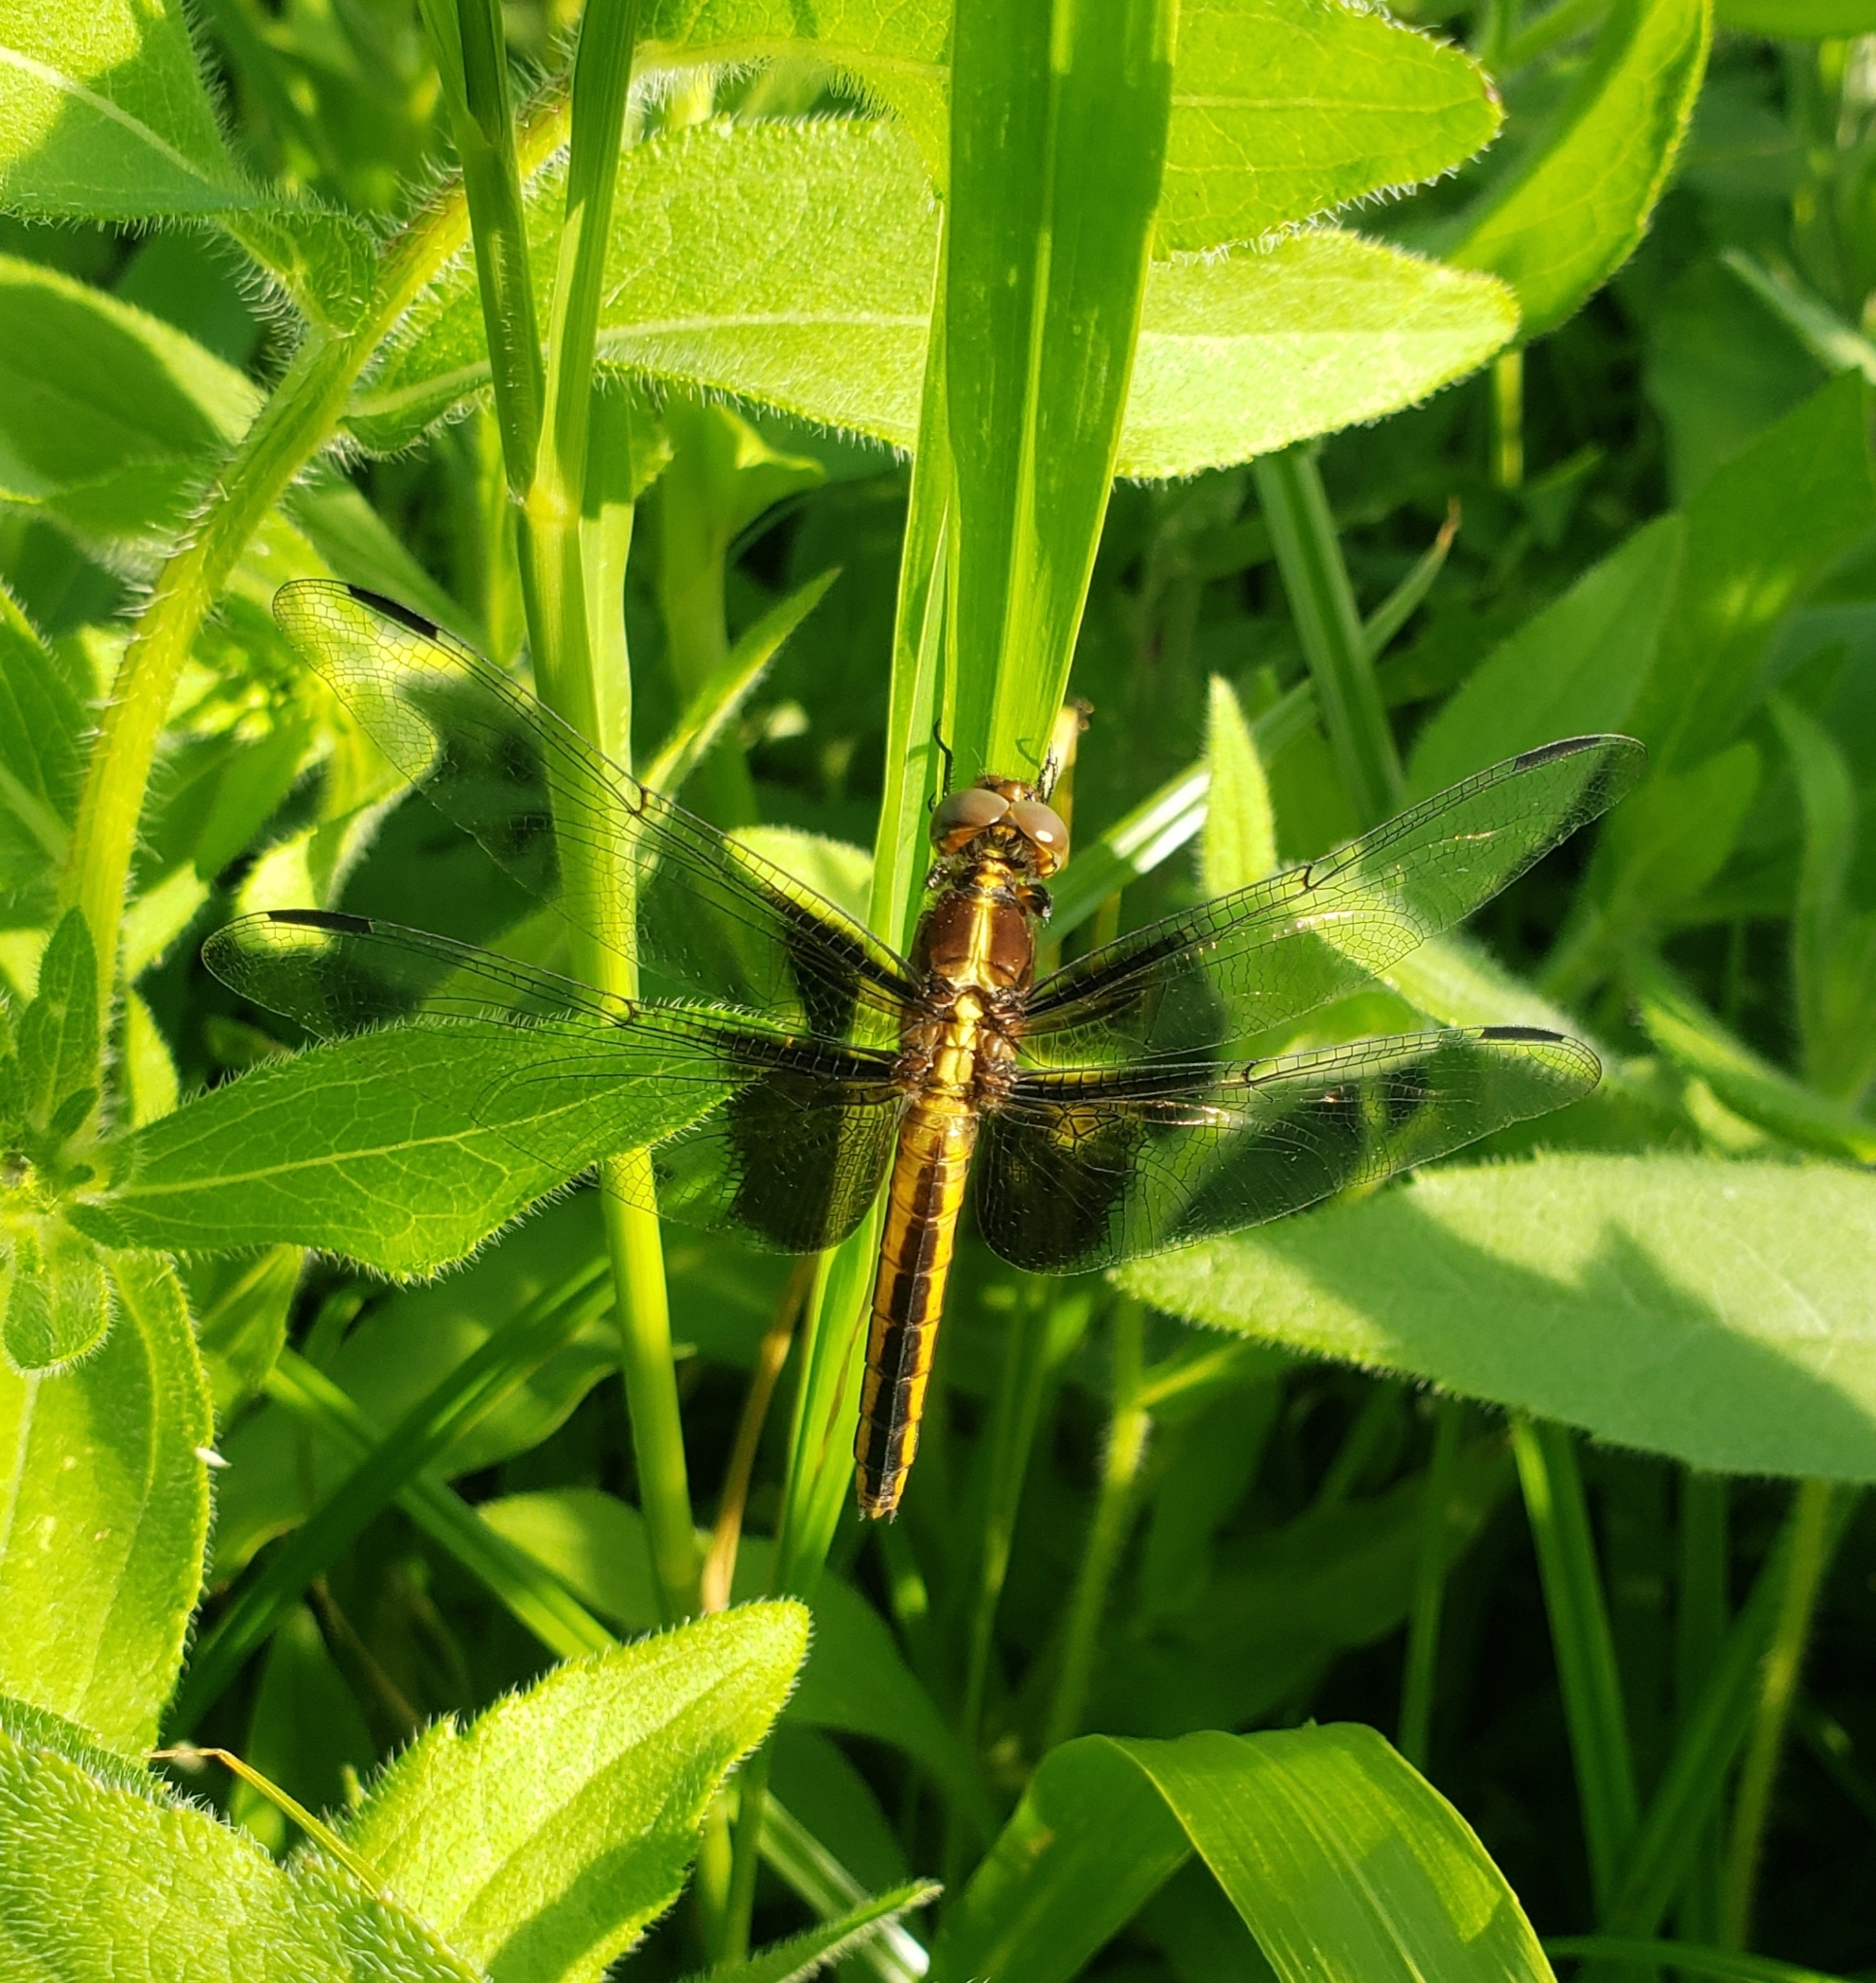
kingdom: Animalia
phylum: Arthropoda
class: Insecta
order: Odonata
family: Libellulidae
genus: Libellula
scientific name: Libellula luctuosa
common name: Widow skimmer
